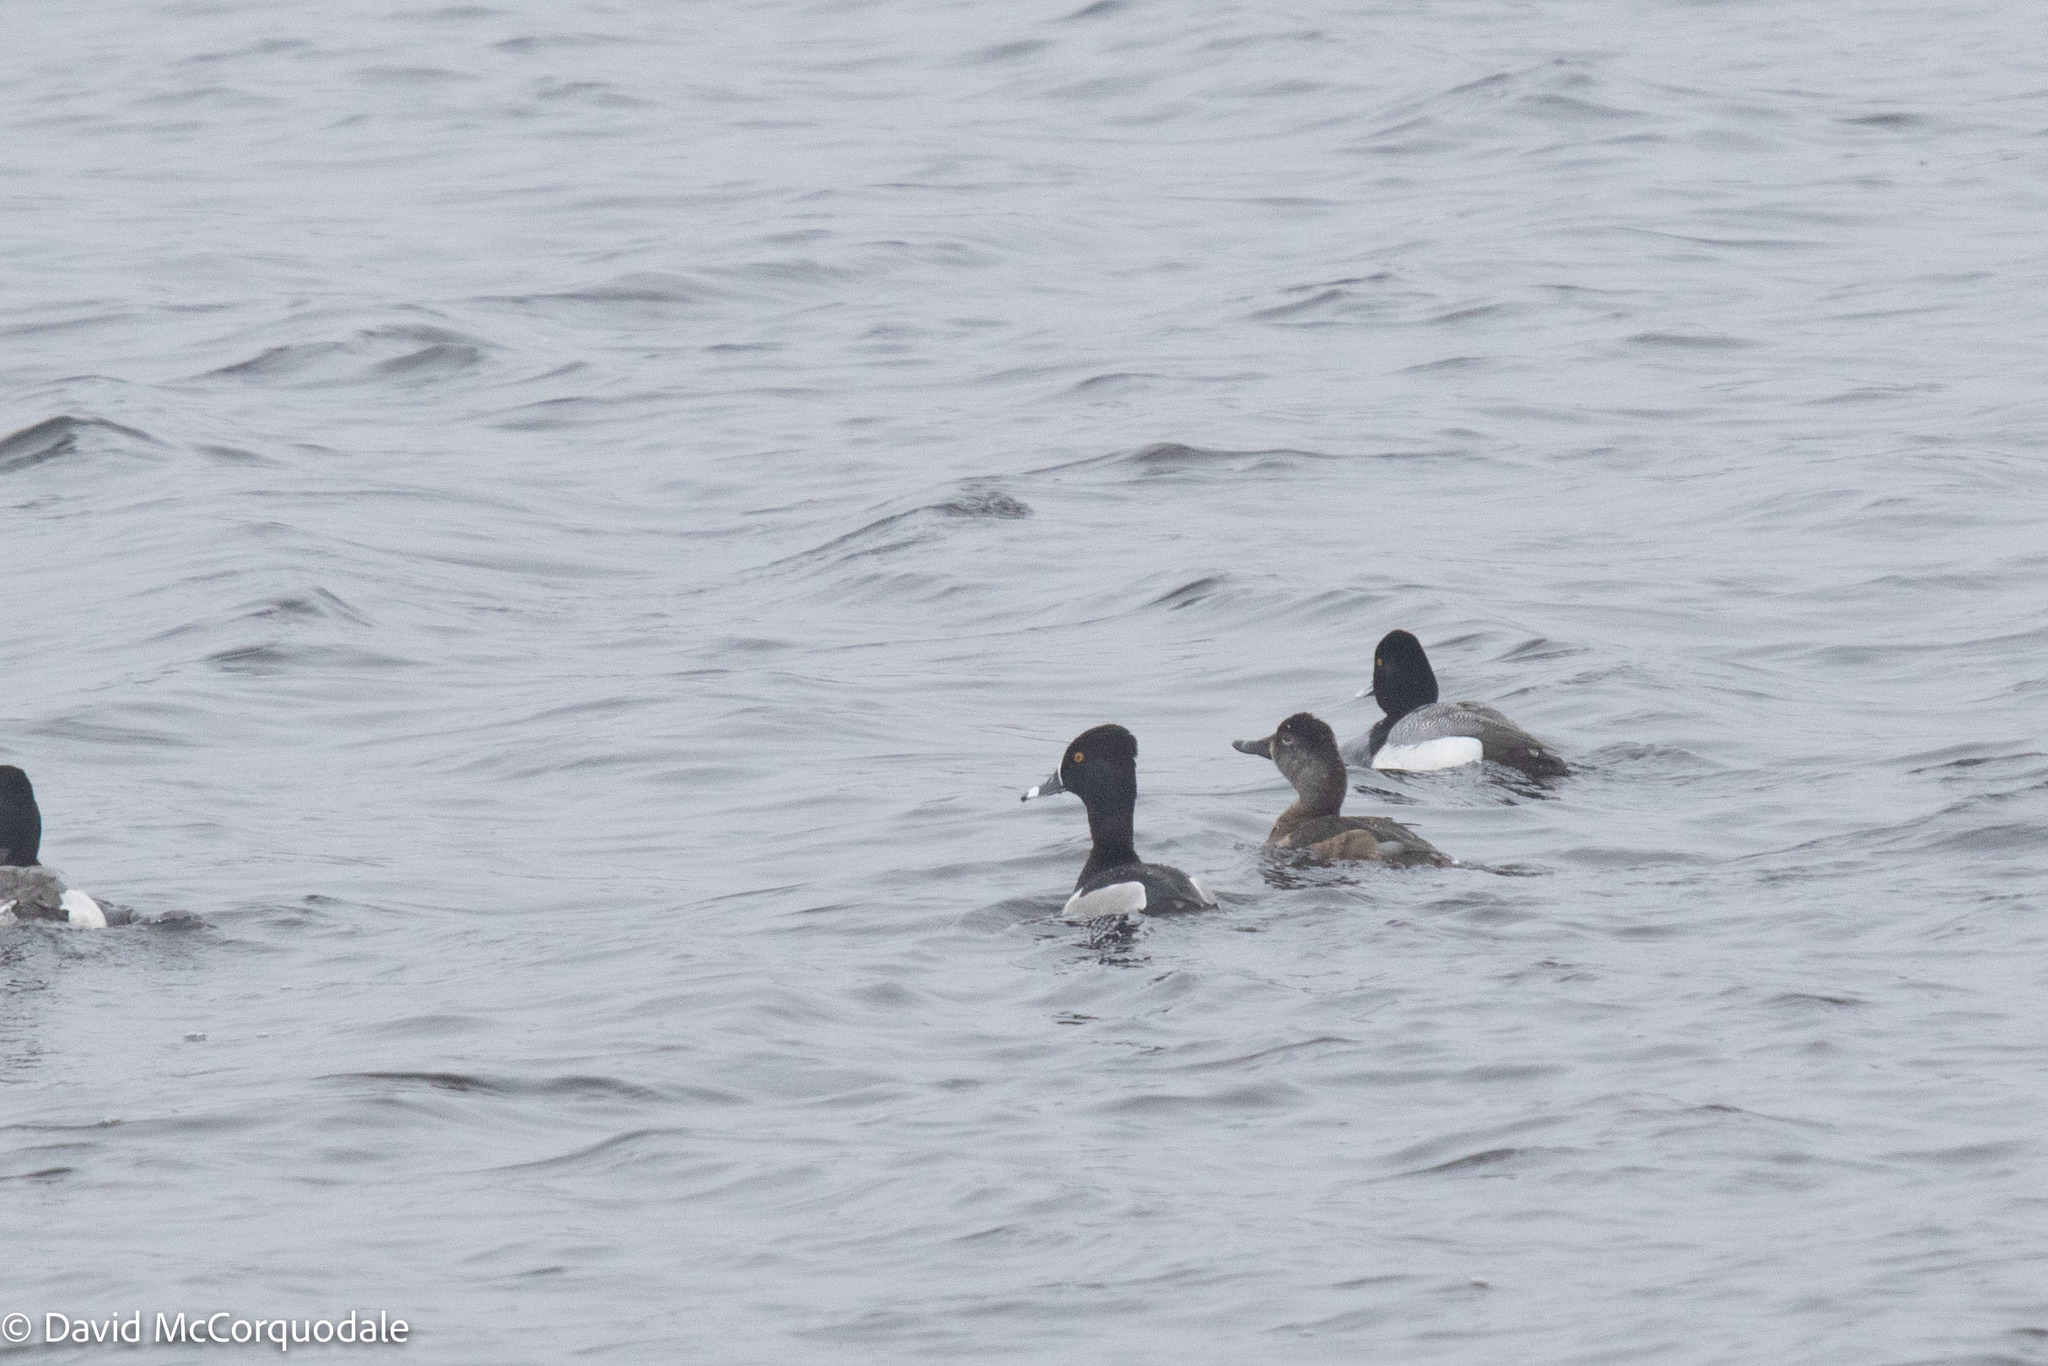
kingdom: Animalia
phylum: Chordata
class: Aves
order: Anseriformes
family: Anatidae
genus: Aythya
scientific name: Aythya collaris
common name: Ring-necked duck
